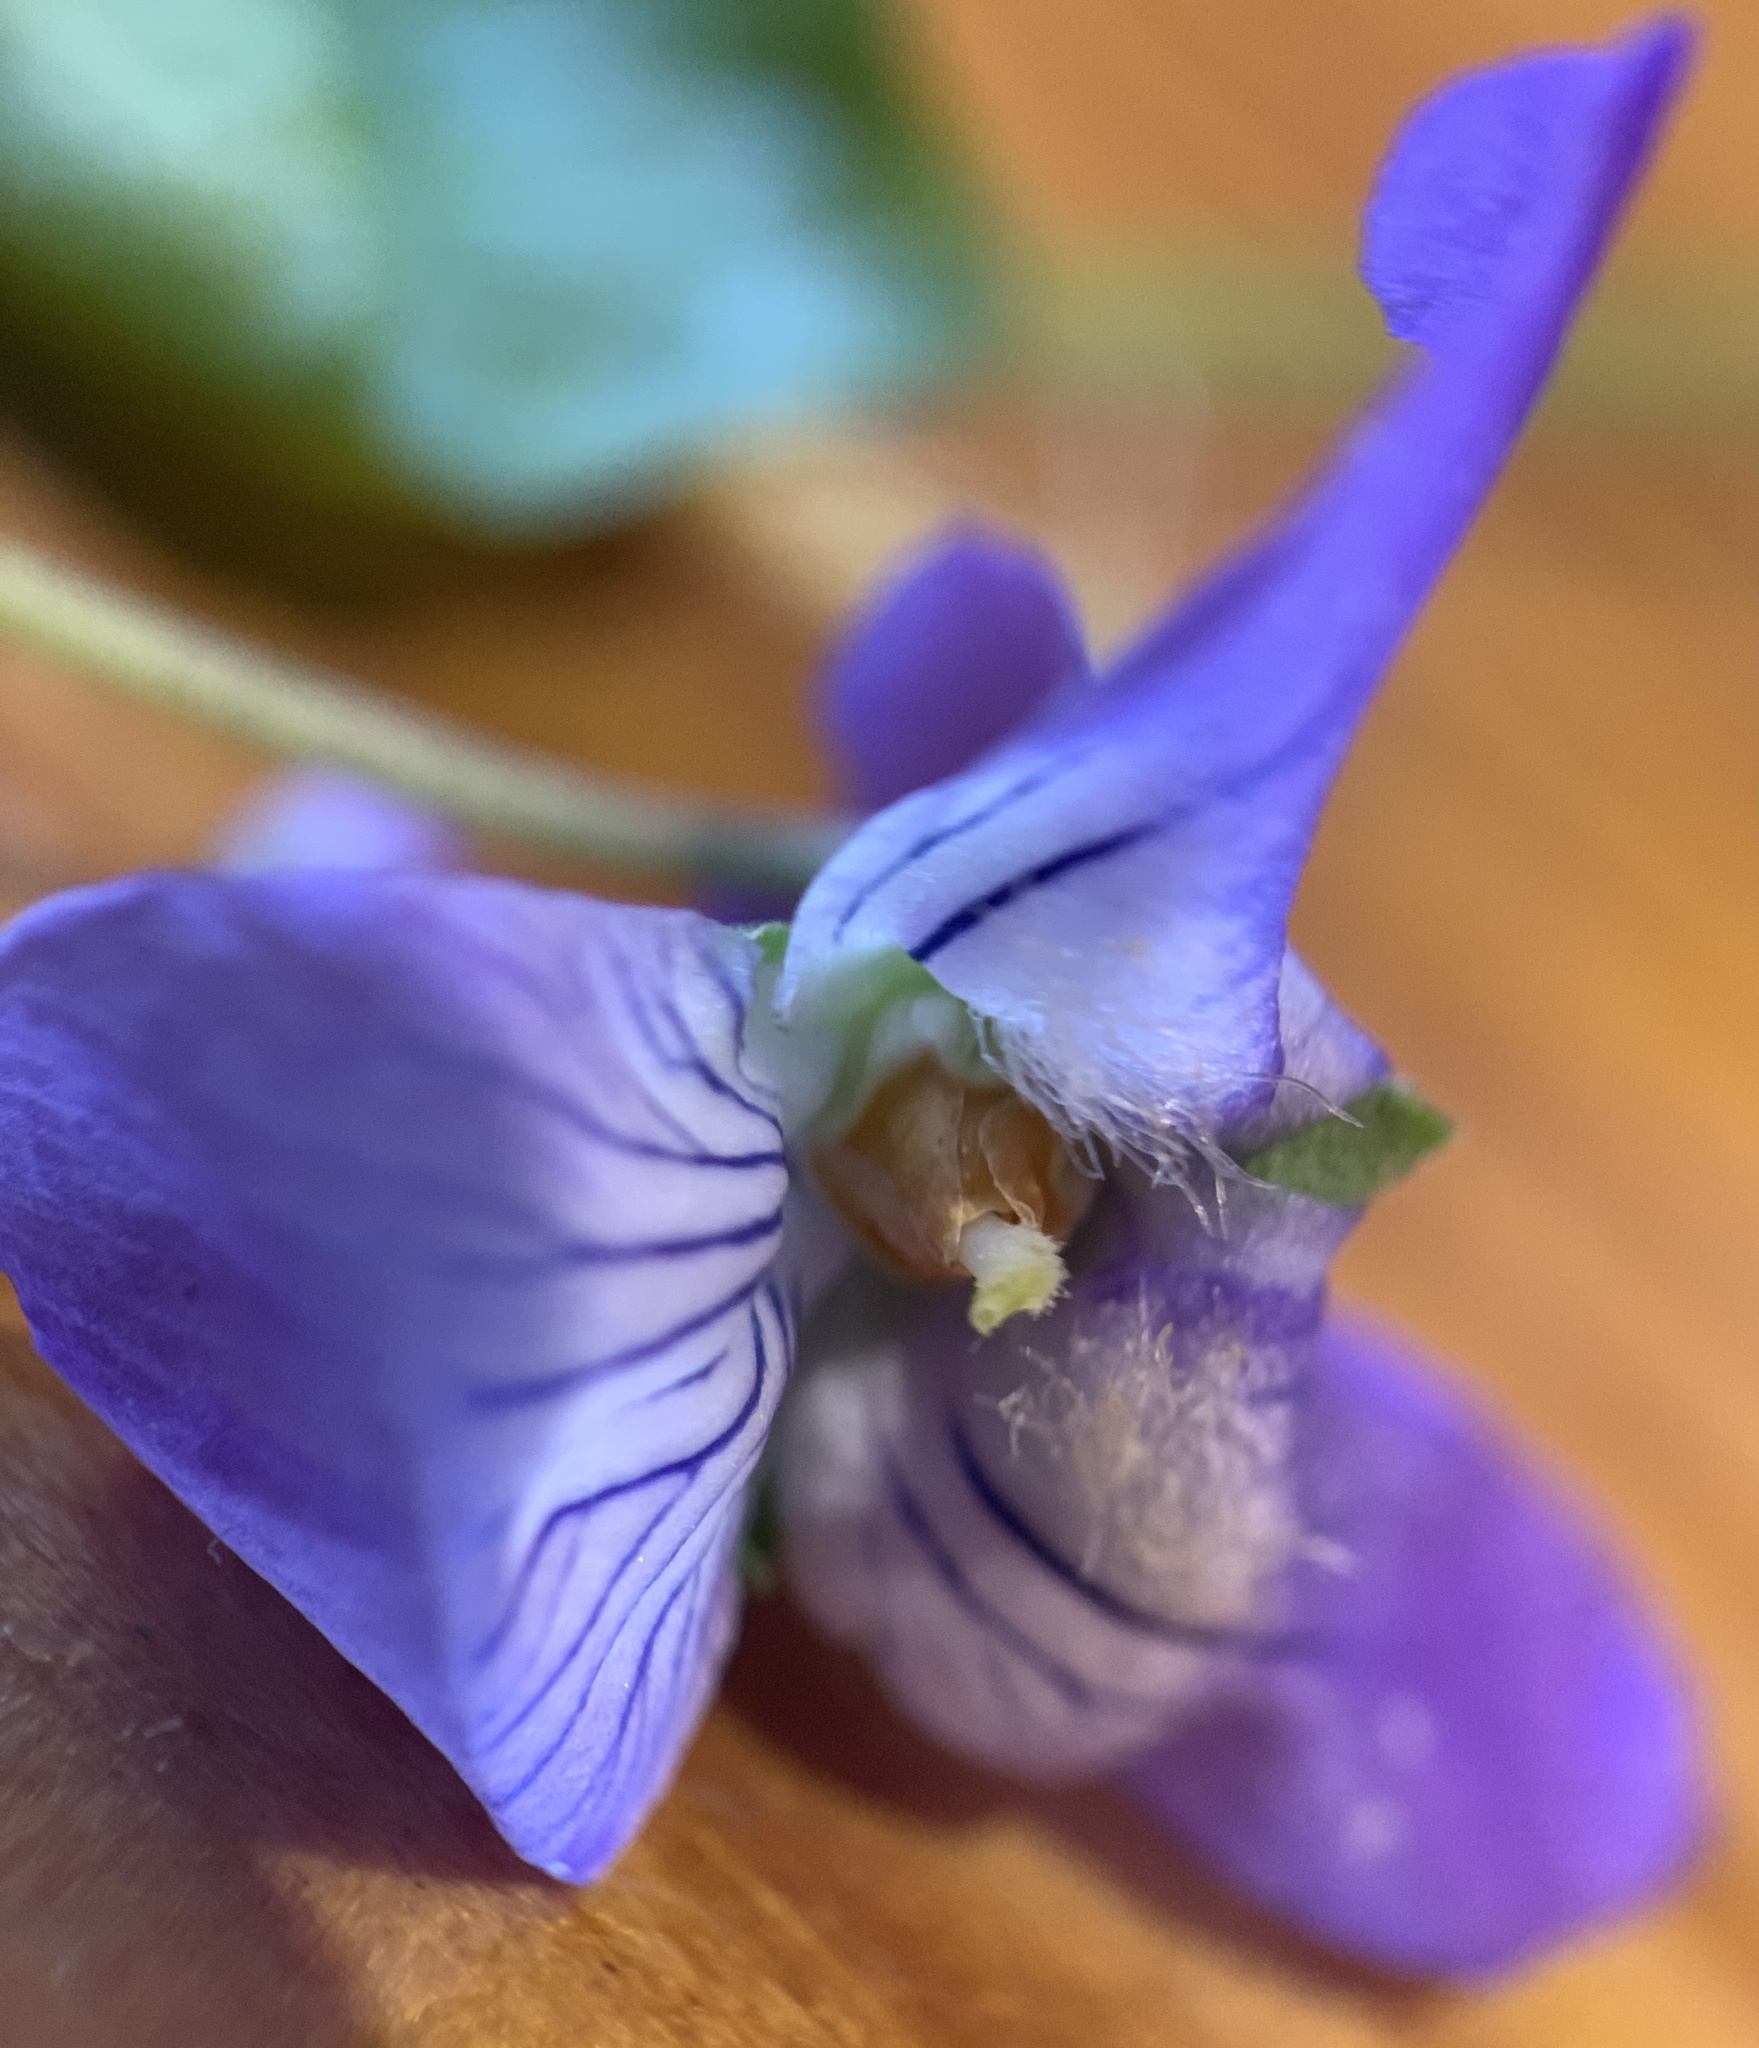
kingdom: Plantae
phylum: Tracheophyta
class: Magnoliopsida
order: Malpighiales
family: Violaceae
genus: Viola
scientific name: Viola adunca
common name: Sand violet
